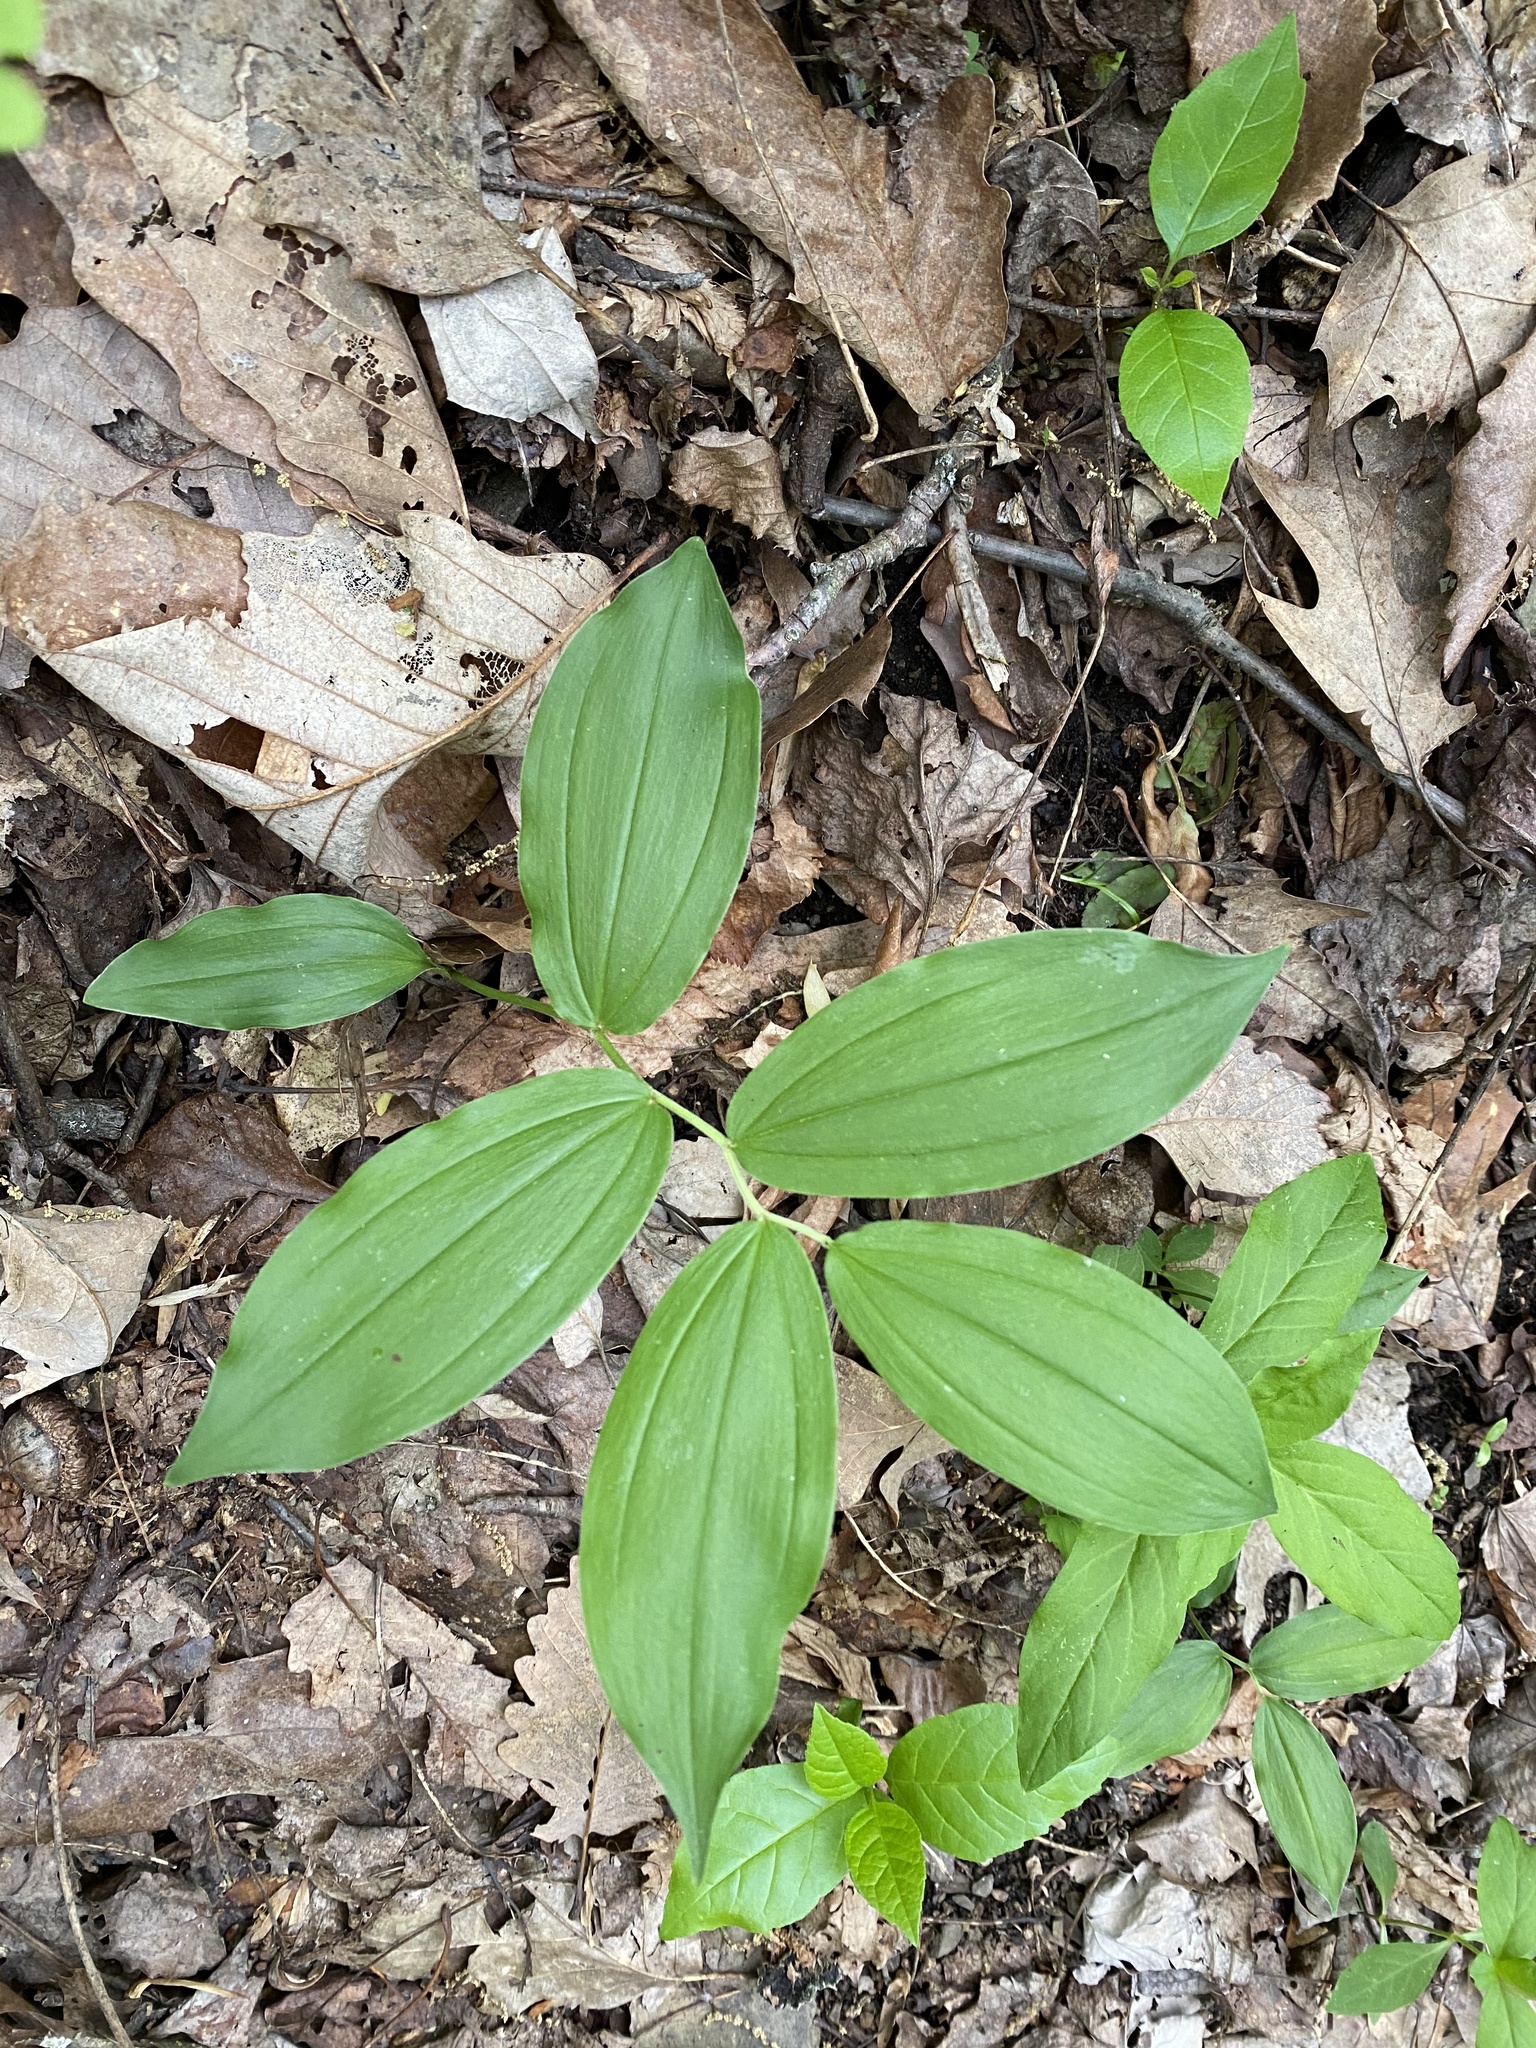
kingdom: Plantae
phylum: Tracheophyta
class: Liliopsida
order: Asparagales
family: Asparagaceae
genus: Maianthemum
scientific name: Maianthemum racemosum
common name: False spikenard
